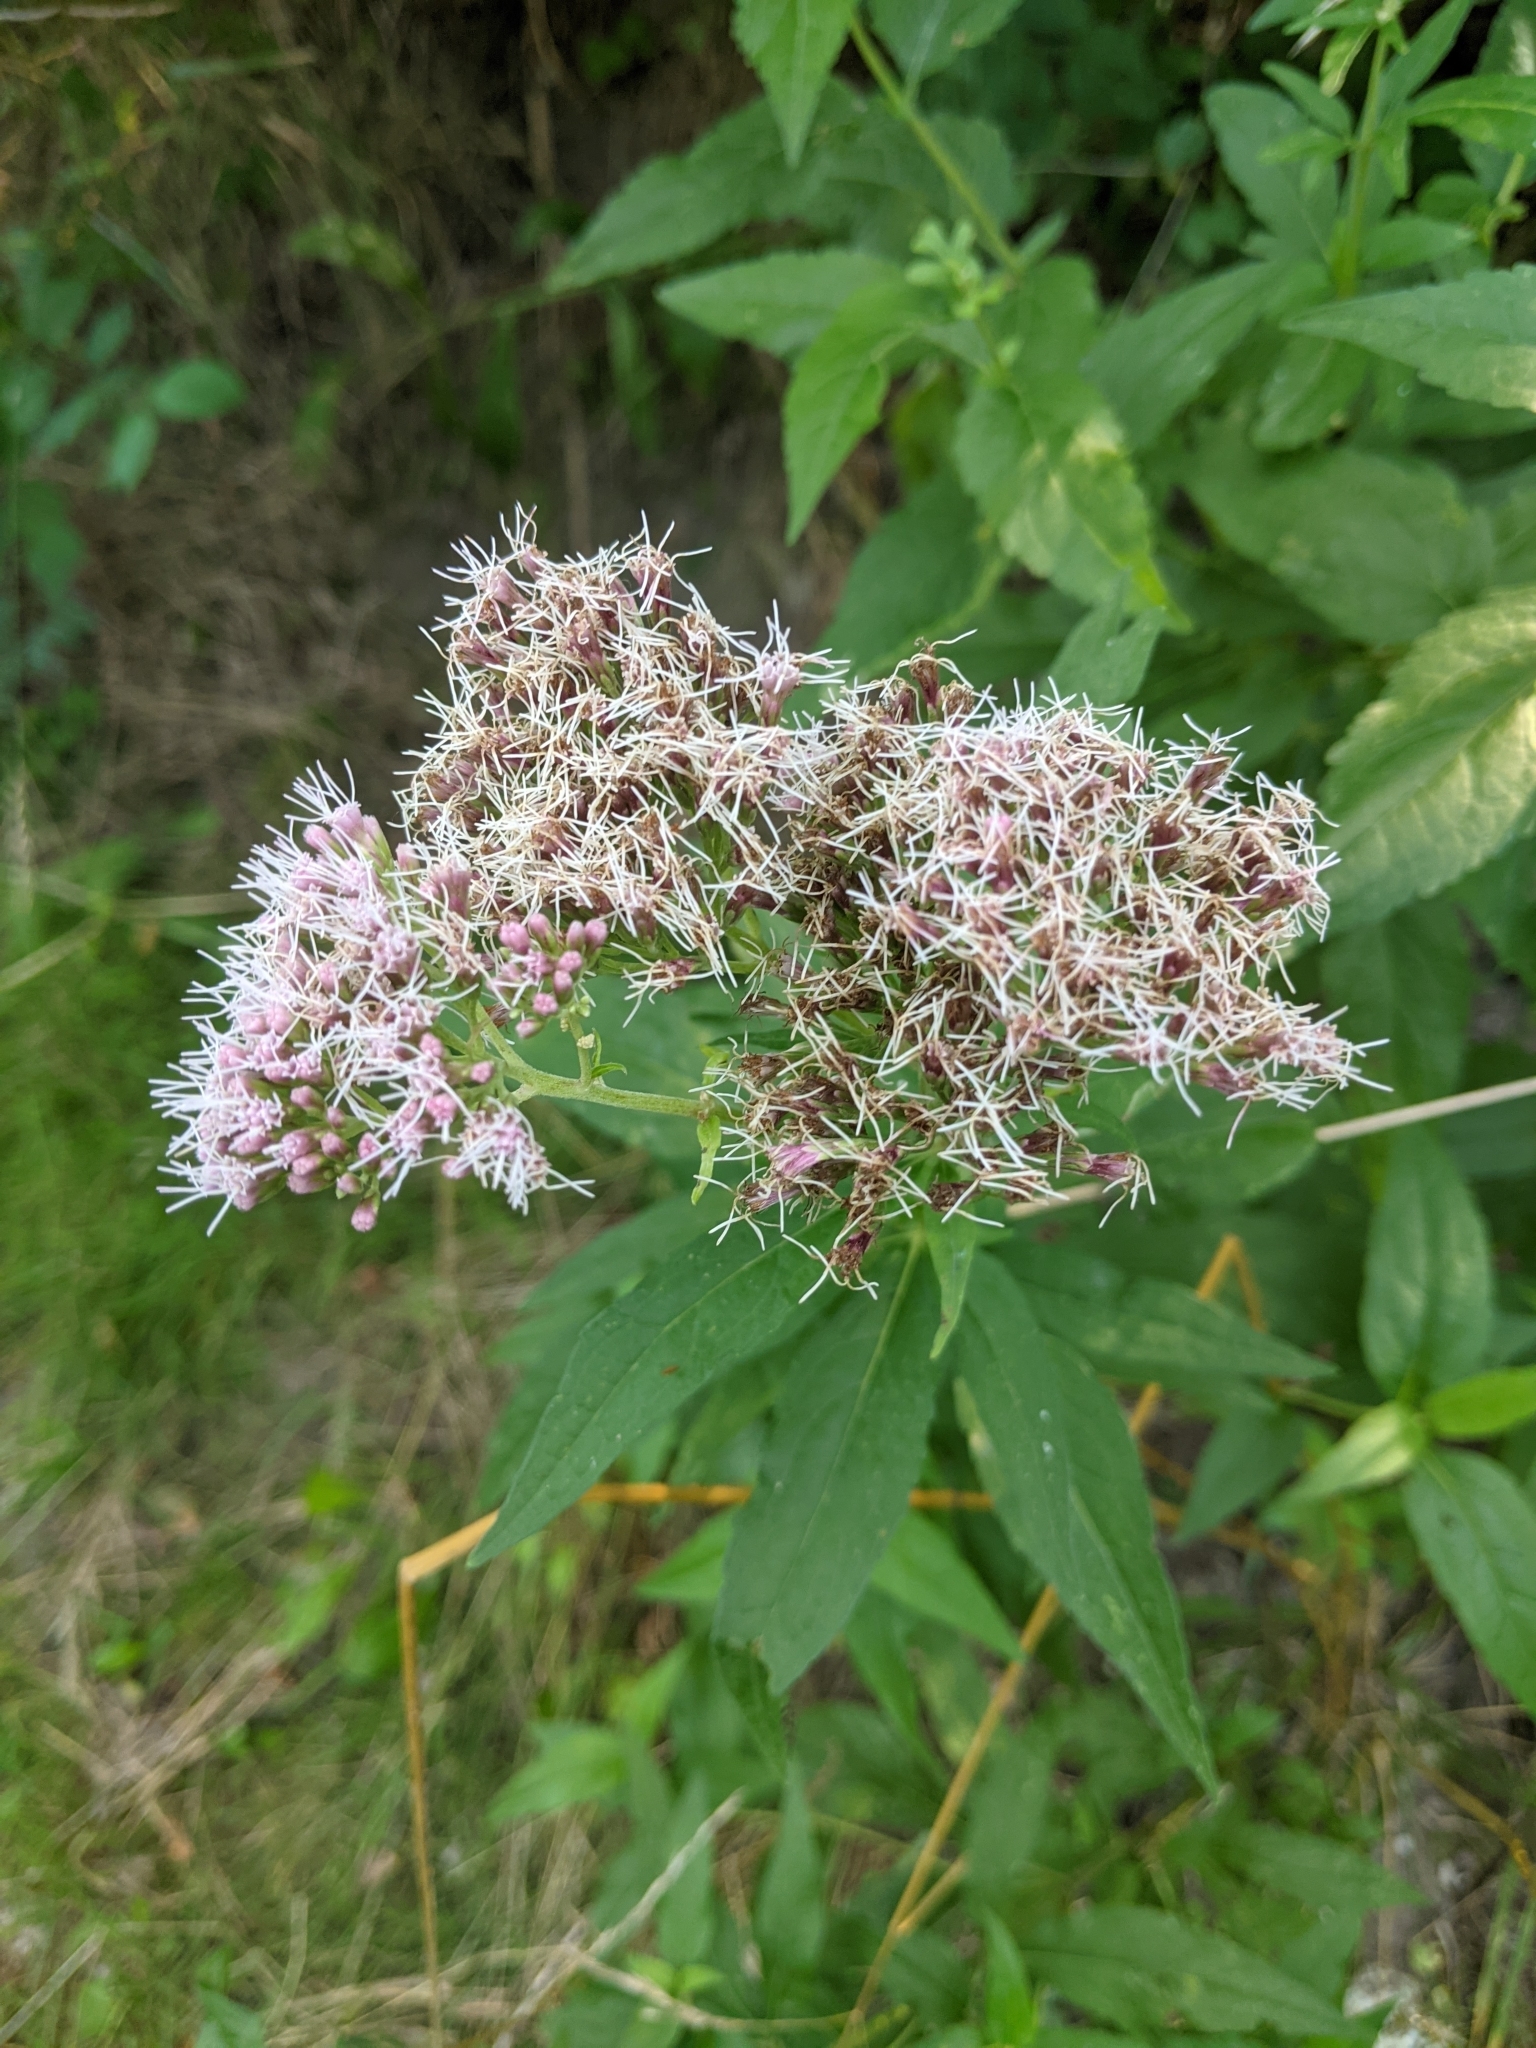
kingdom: Plantae
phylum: Tracheophyta
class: Magnoliopsida
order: Asterales
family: Asteraceae
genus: Eupatorium
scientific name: Eupatorium cannabinum
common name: Hemp-agrimony
